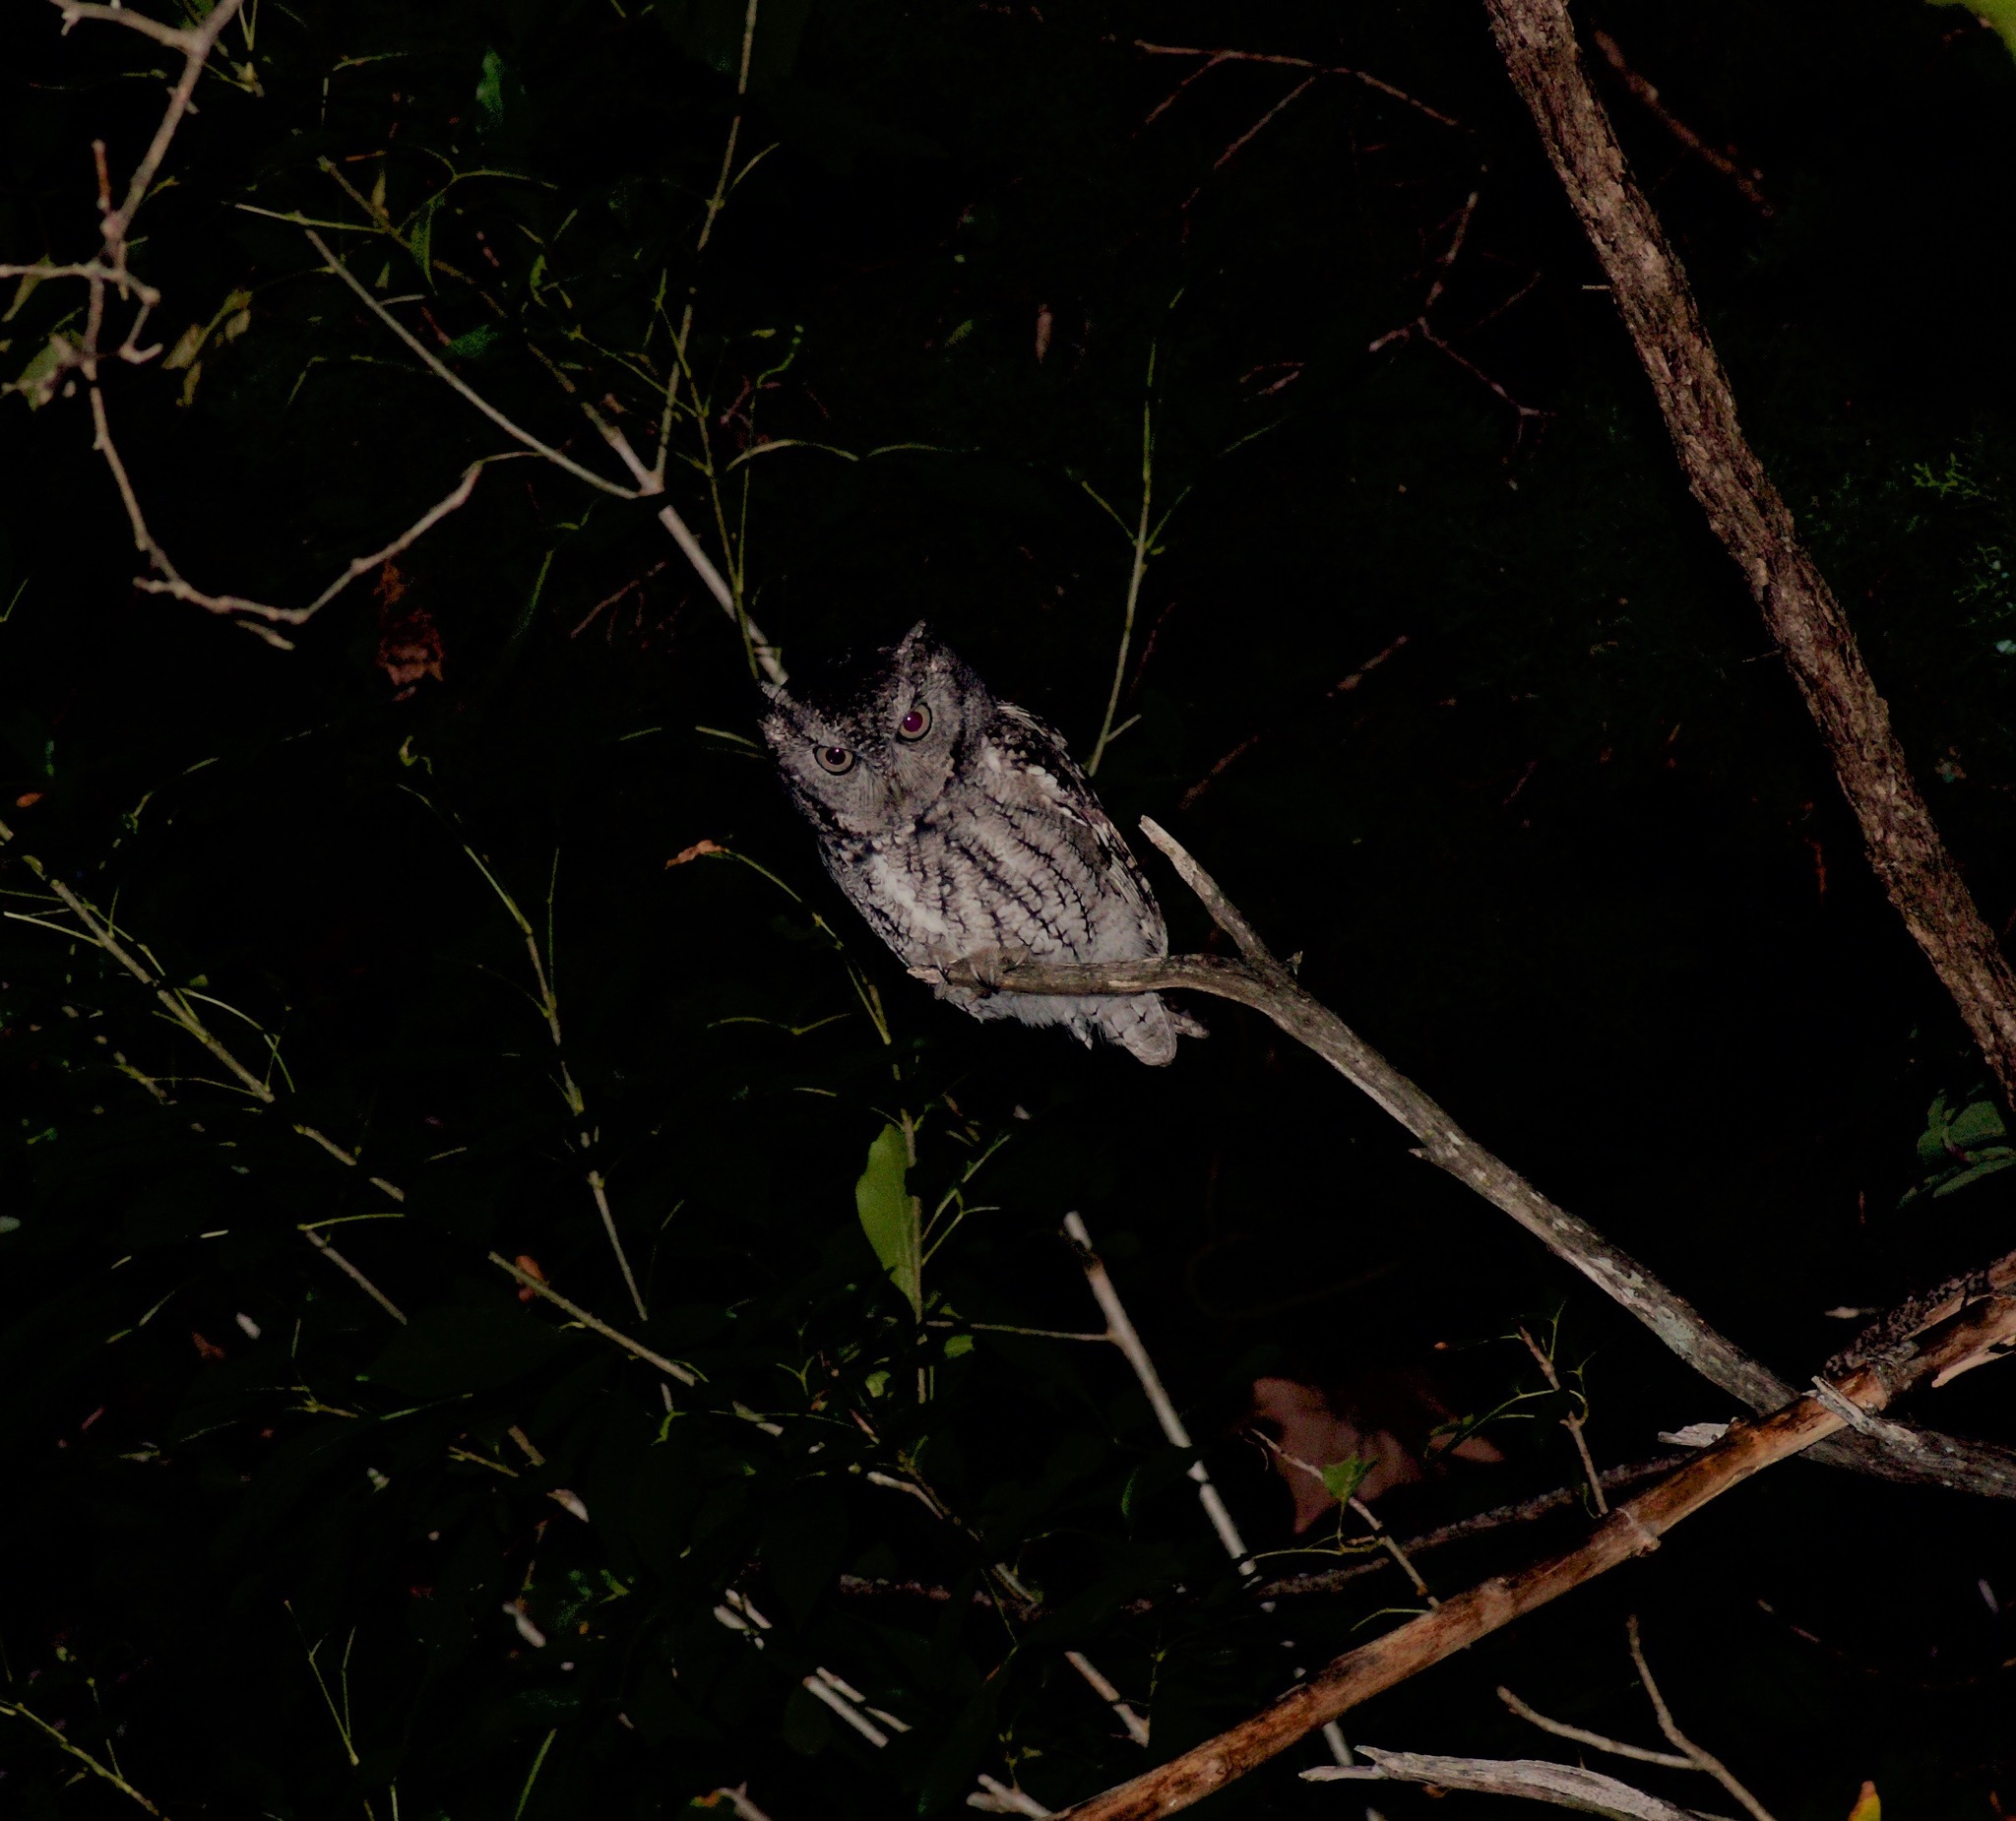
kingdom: Animalia
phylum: Chordata
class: Aves
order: Strigiformes
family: Strigidae
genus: Megascops
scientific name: Megascops asio
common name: Eastern screech-owl
